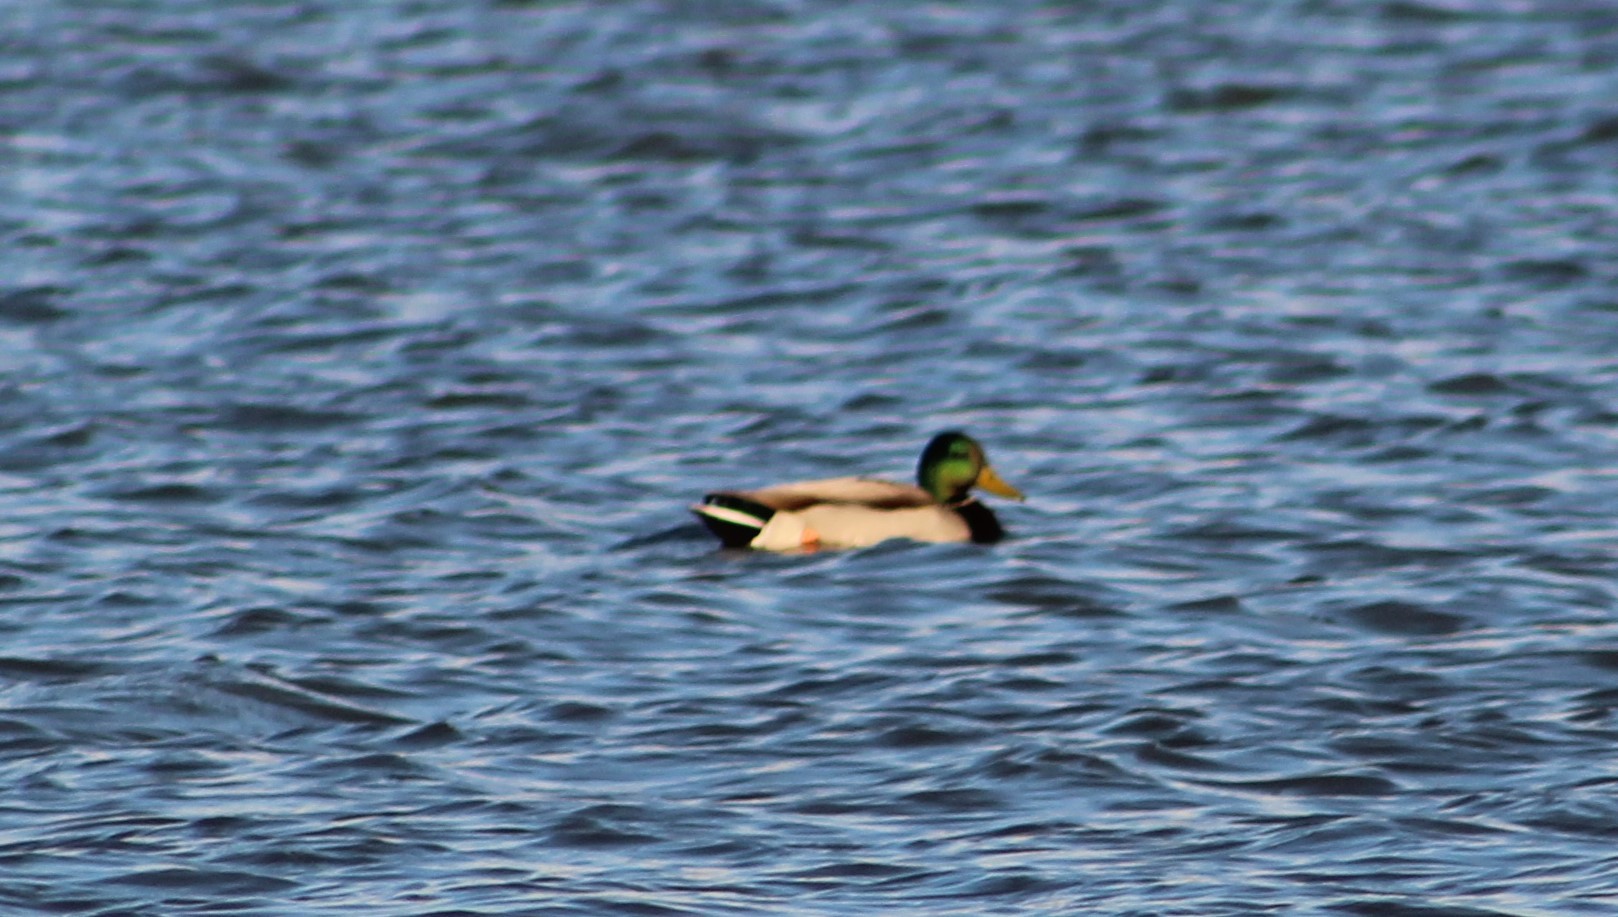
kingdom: Animalia
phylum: Chordata
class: Aves
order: Anseriformes
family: Anatidae
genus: Anas
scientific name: Anas platyrhynchos
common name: Mallard
